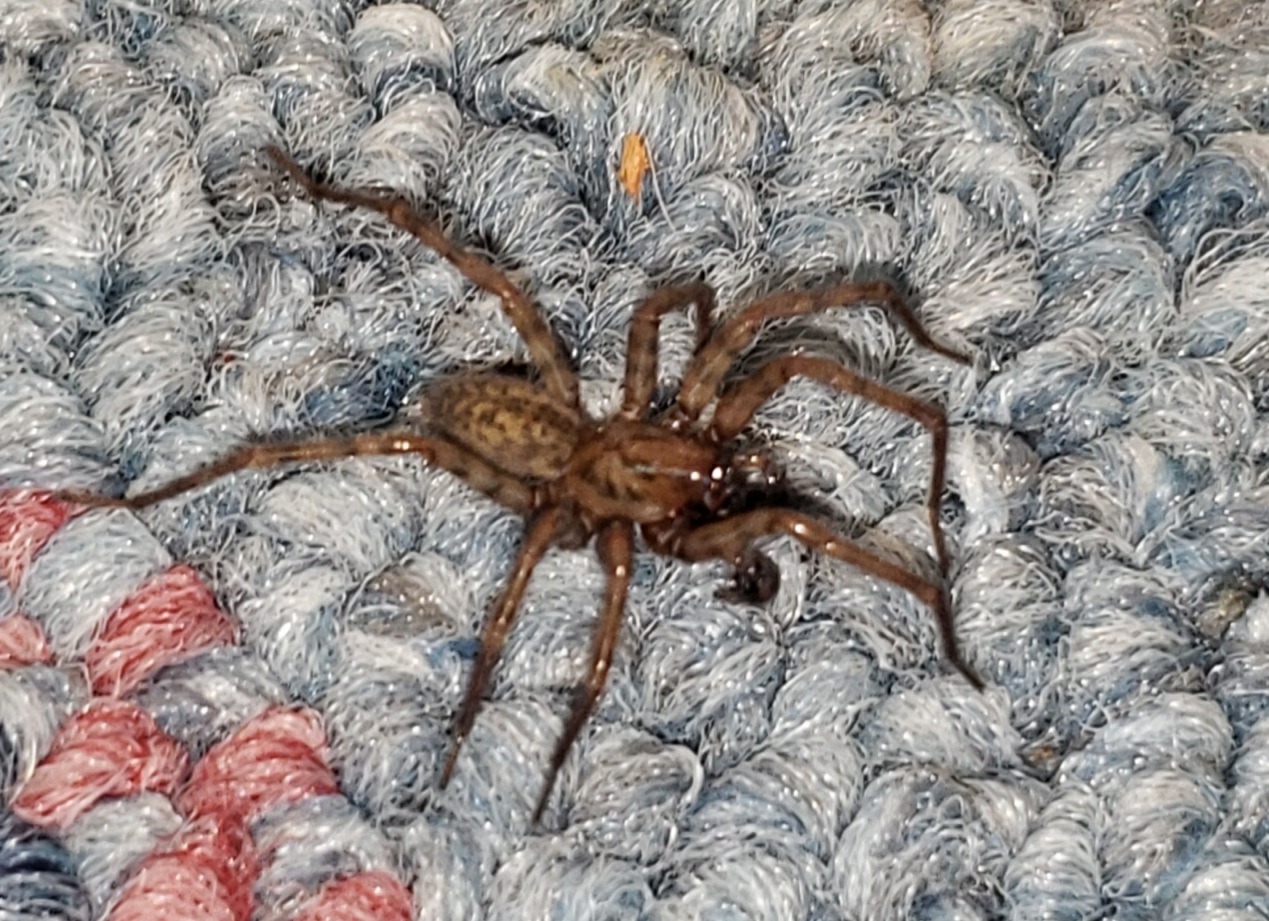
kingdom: Animalia
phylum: Arthropoda
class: Arachnida
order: Araneae
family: Agelenidae
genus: Coras
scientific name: Coras
